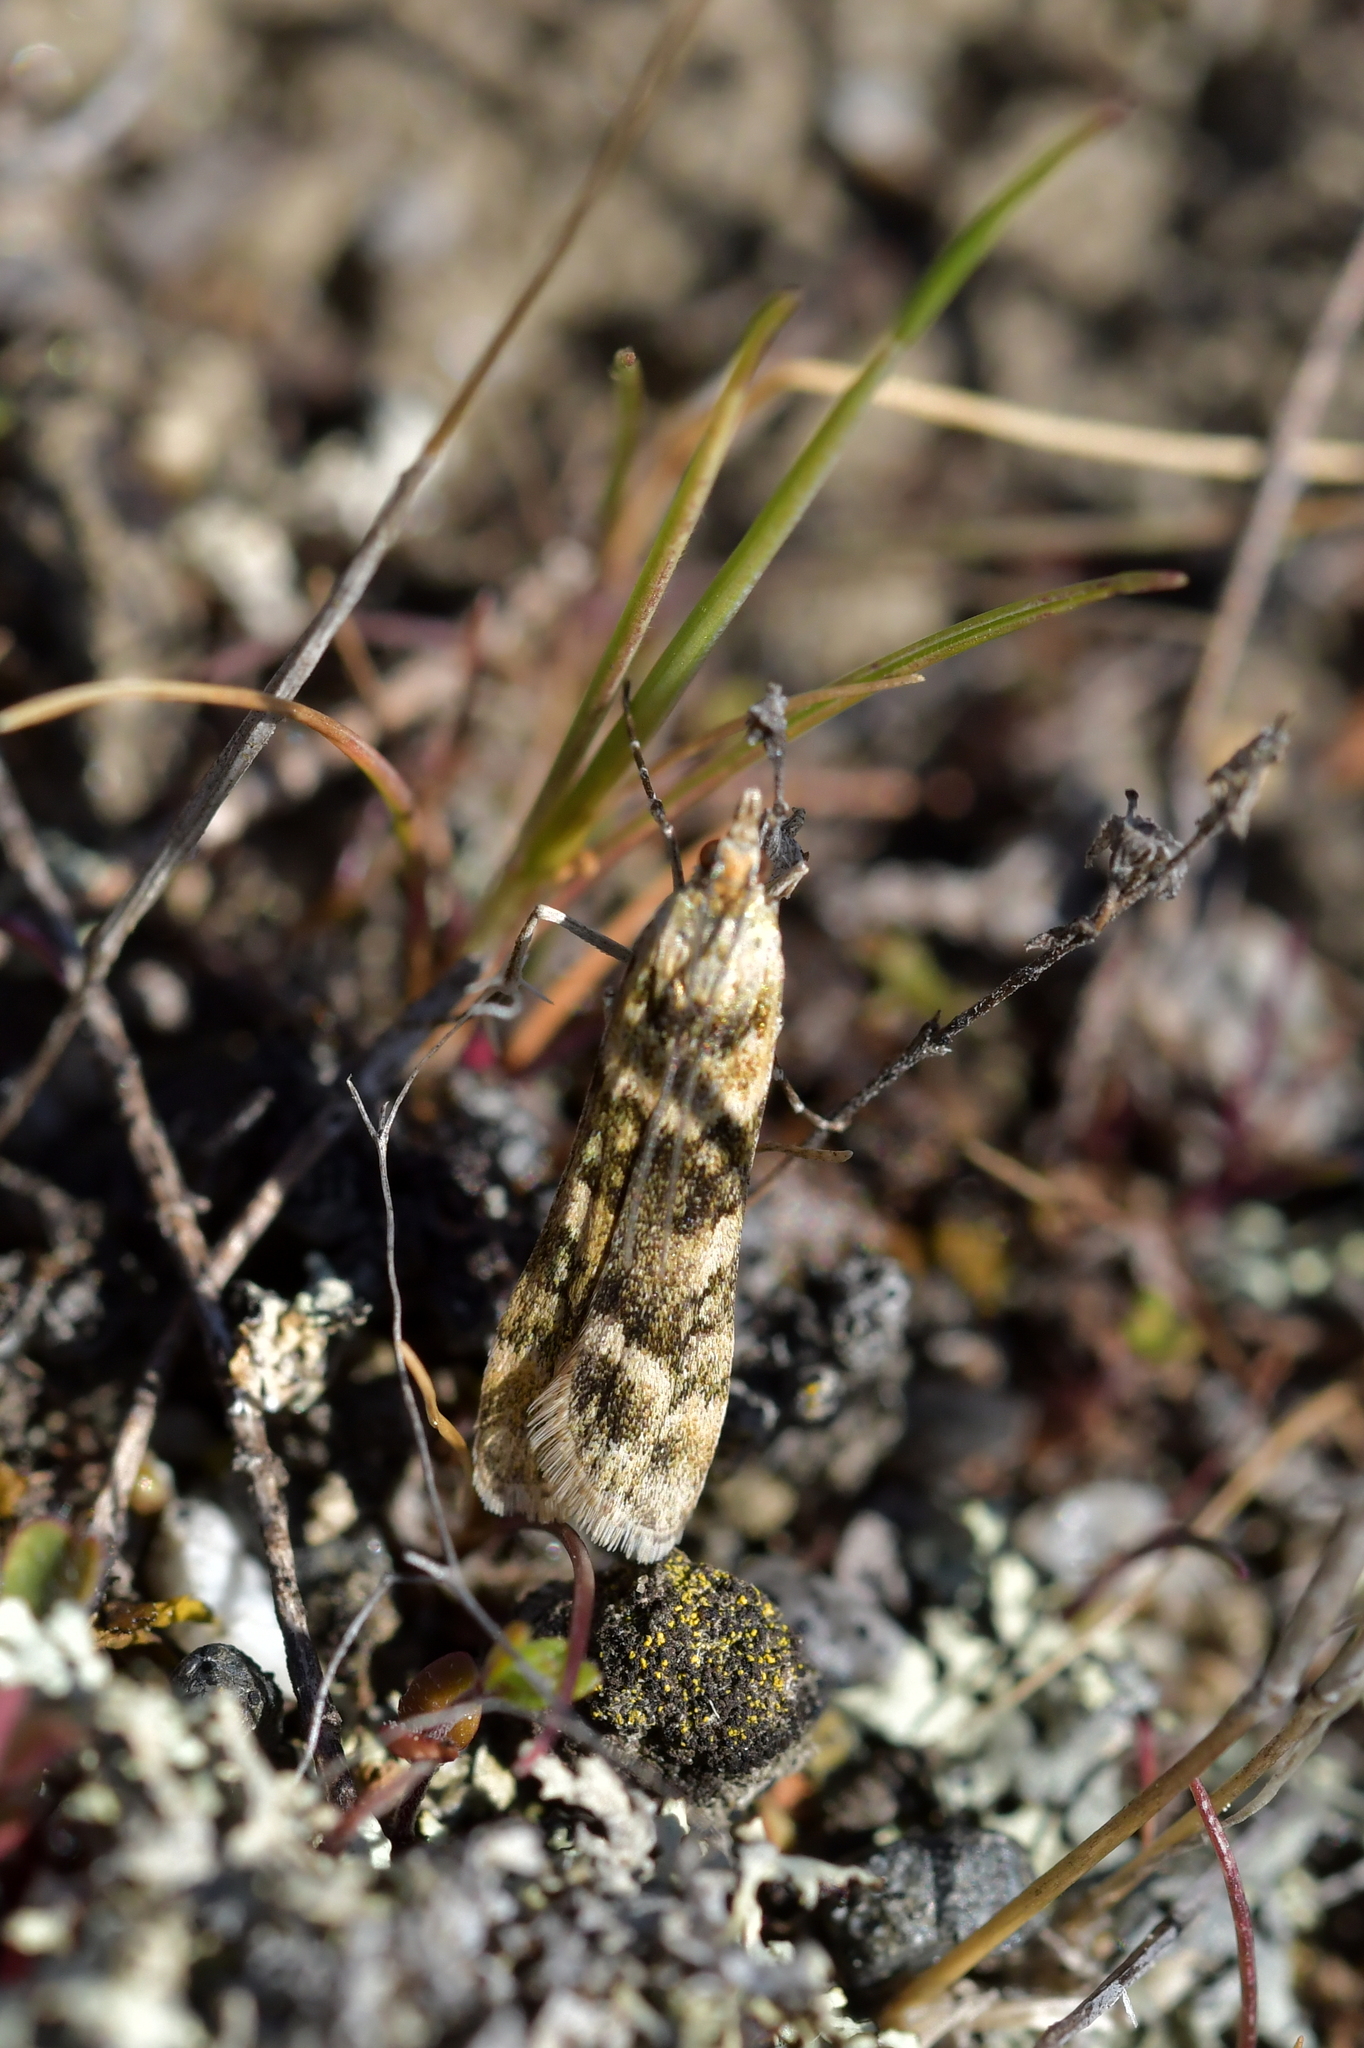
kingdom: Animalia
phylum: Arthropoda
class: Insecta
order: Lepidoptera
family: Crambidae
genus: Eudonia
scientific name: Eudonia gyrotoma
